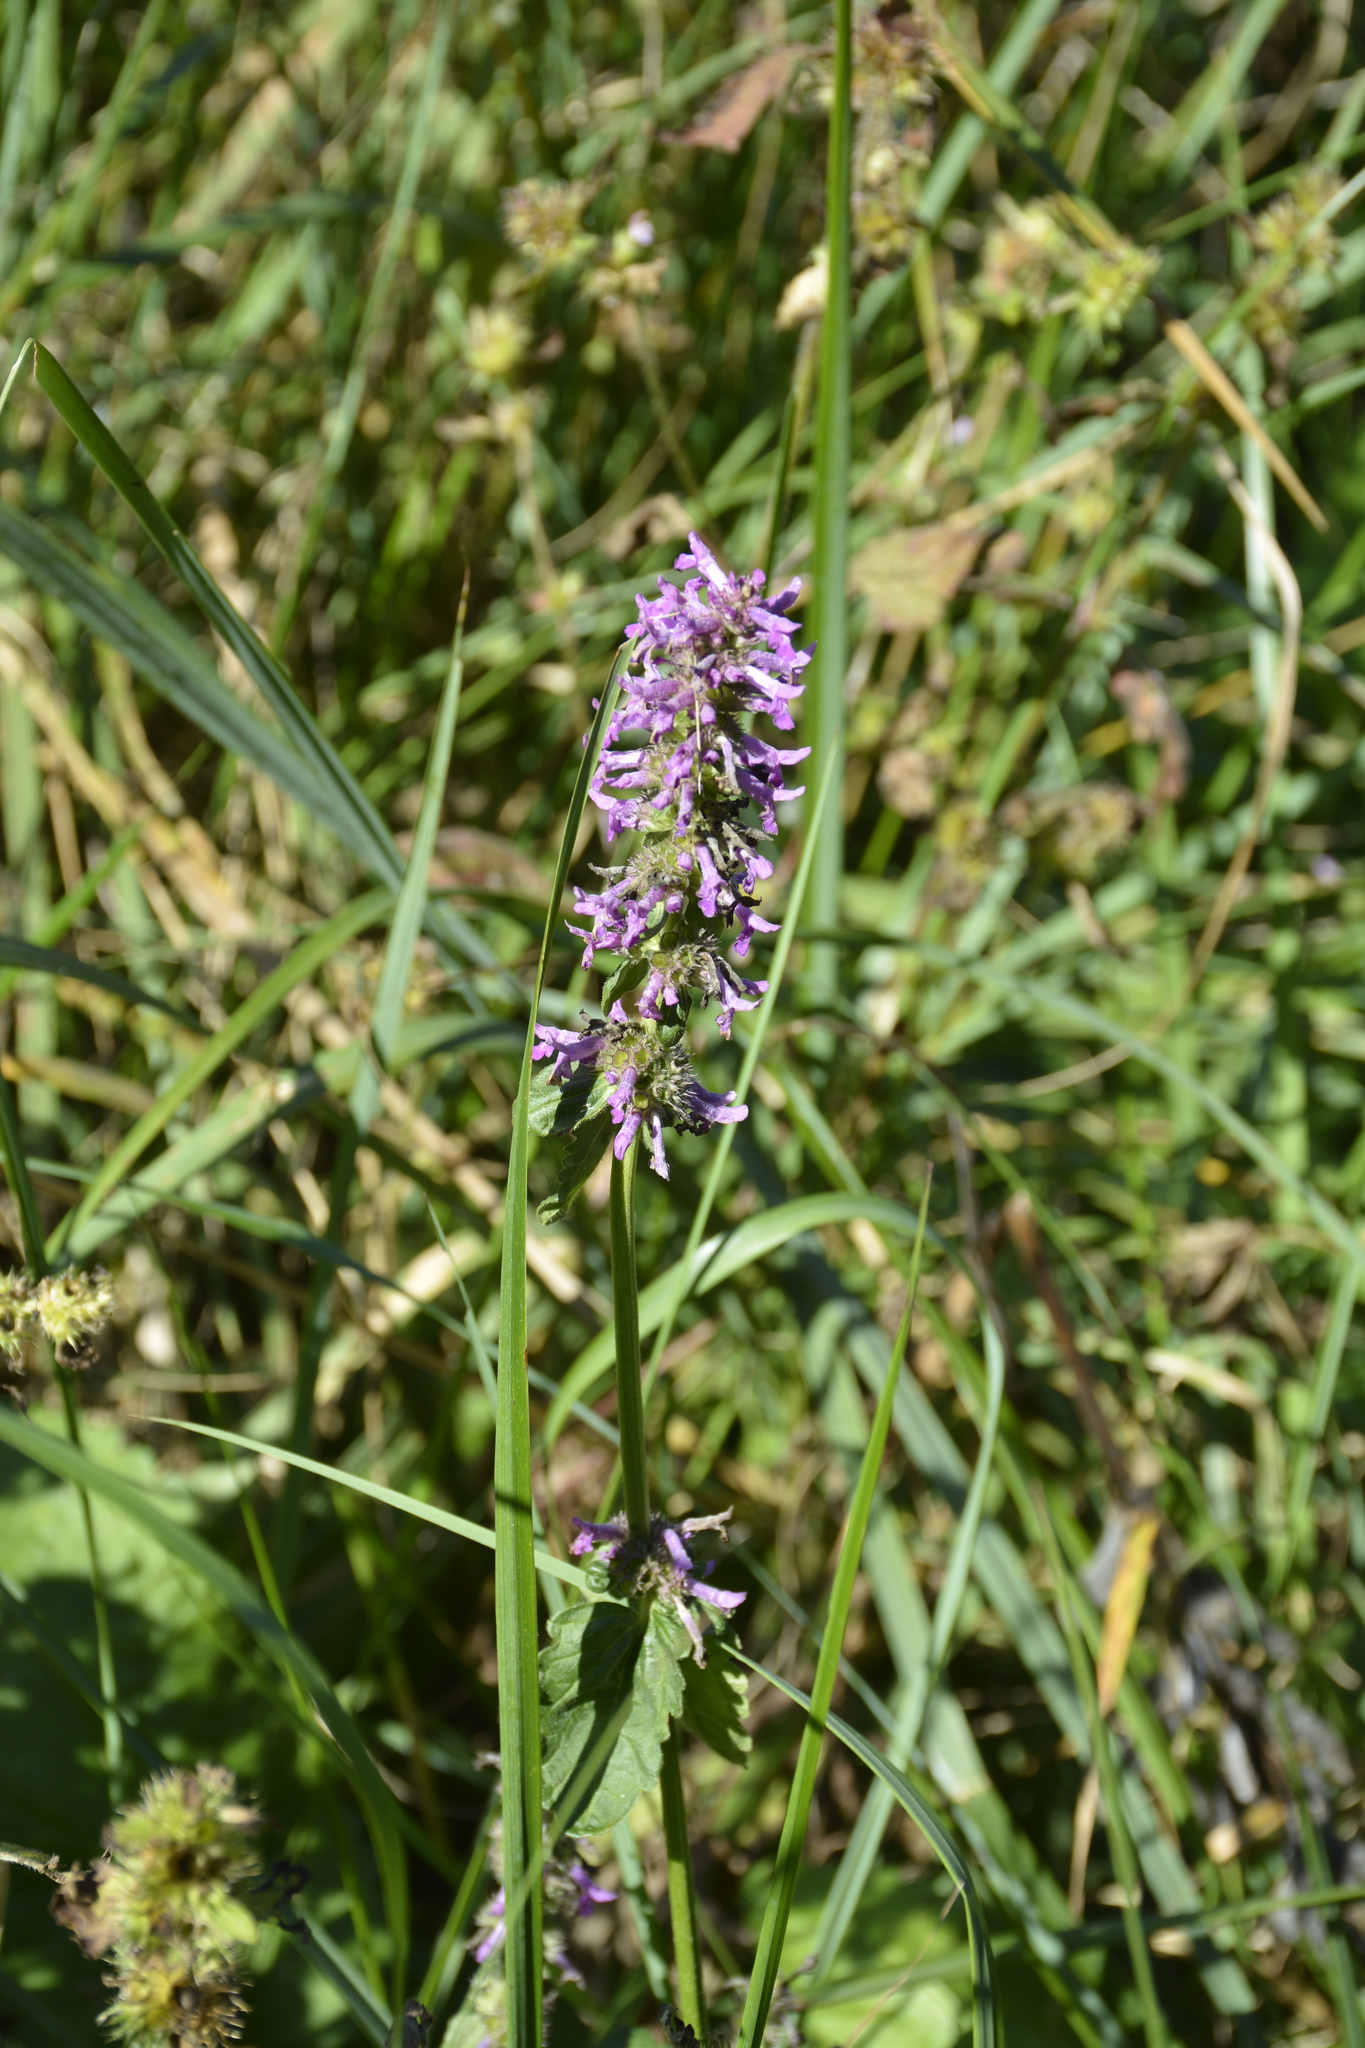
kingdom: Plantae
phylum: Tracheophyta
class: Magnoliopsida
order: Lamiales
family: Lamiaceae
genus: Betonica
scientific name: Betonica officinalis
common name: Bishop's-wort
